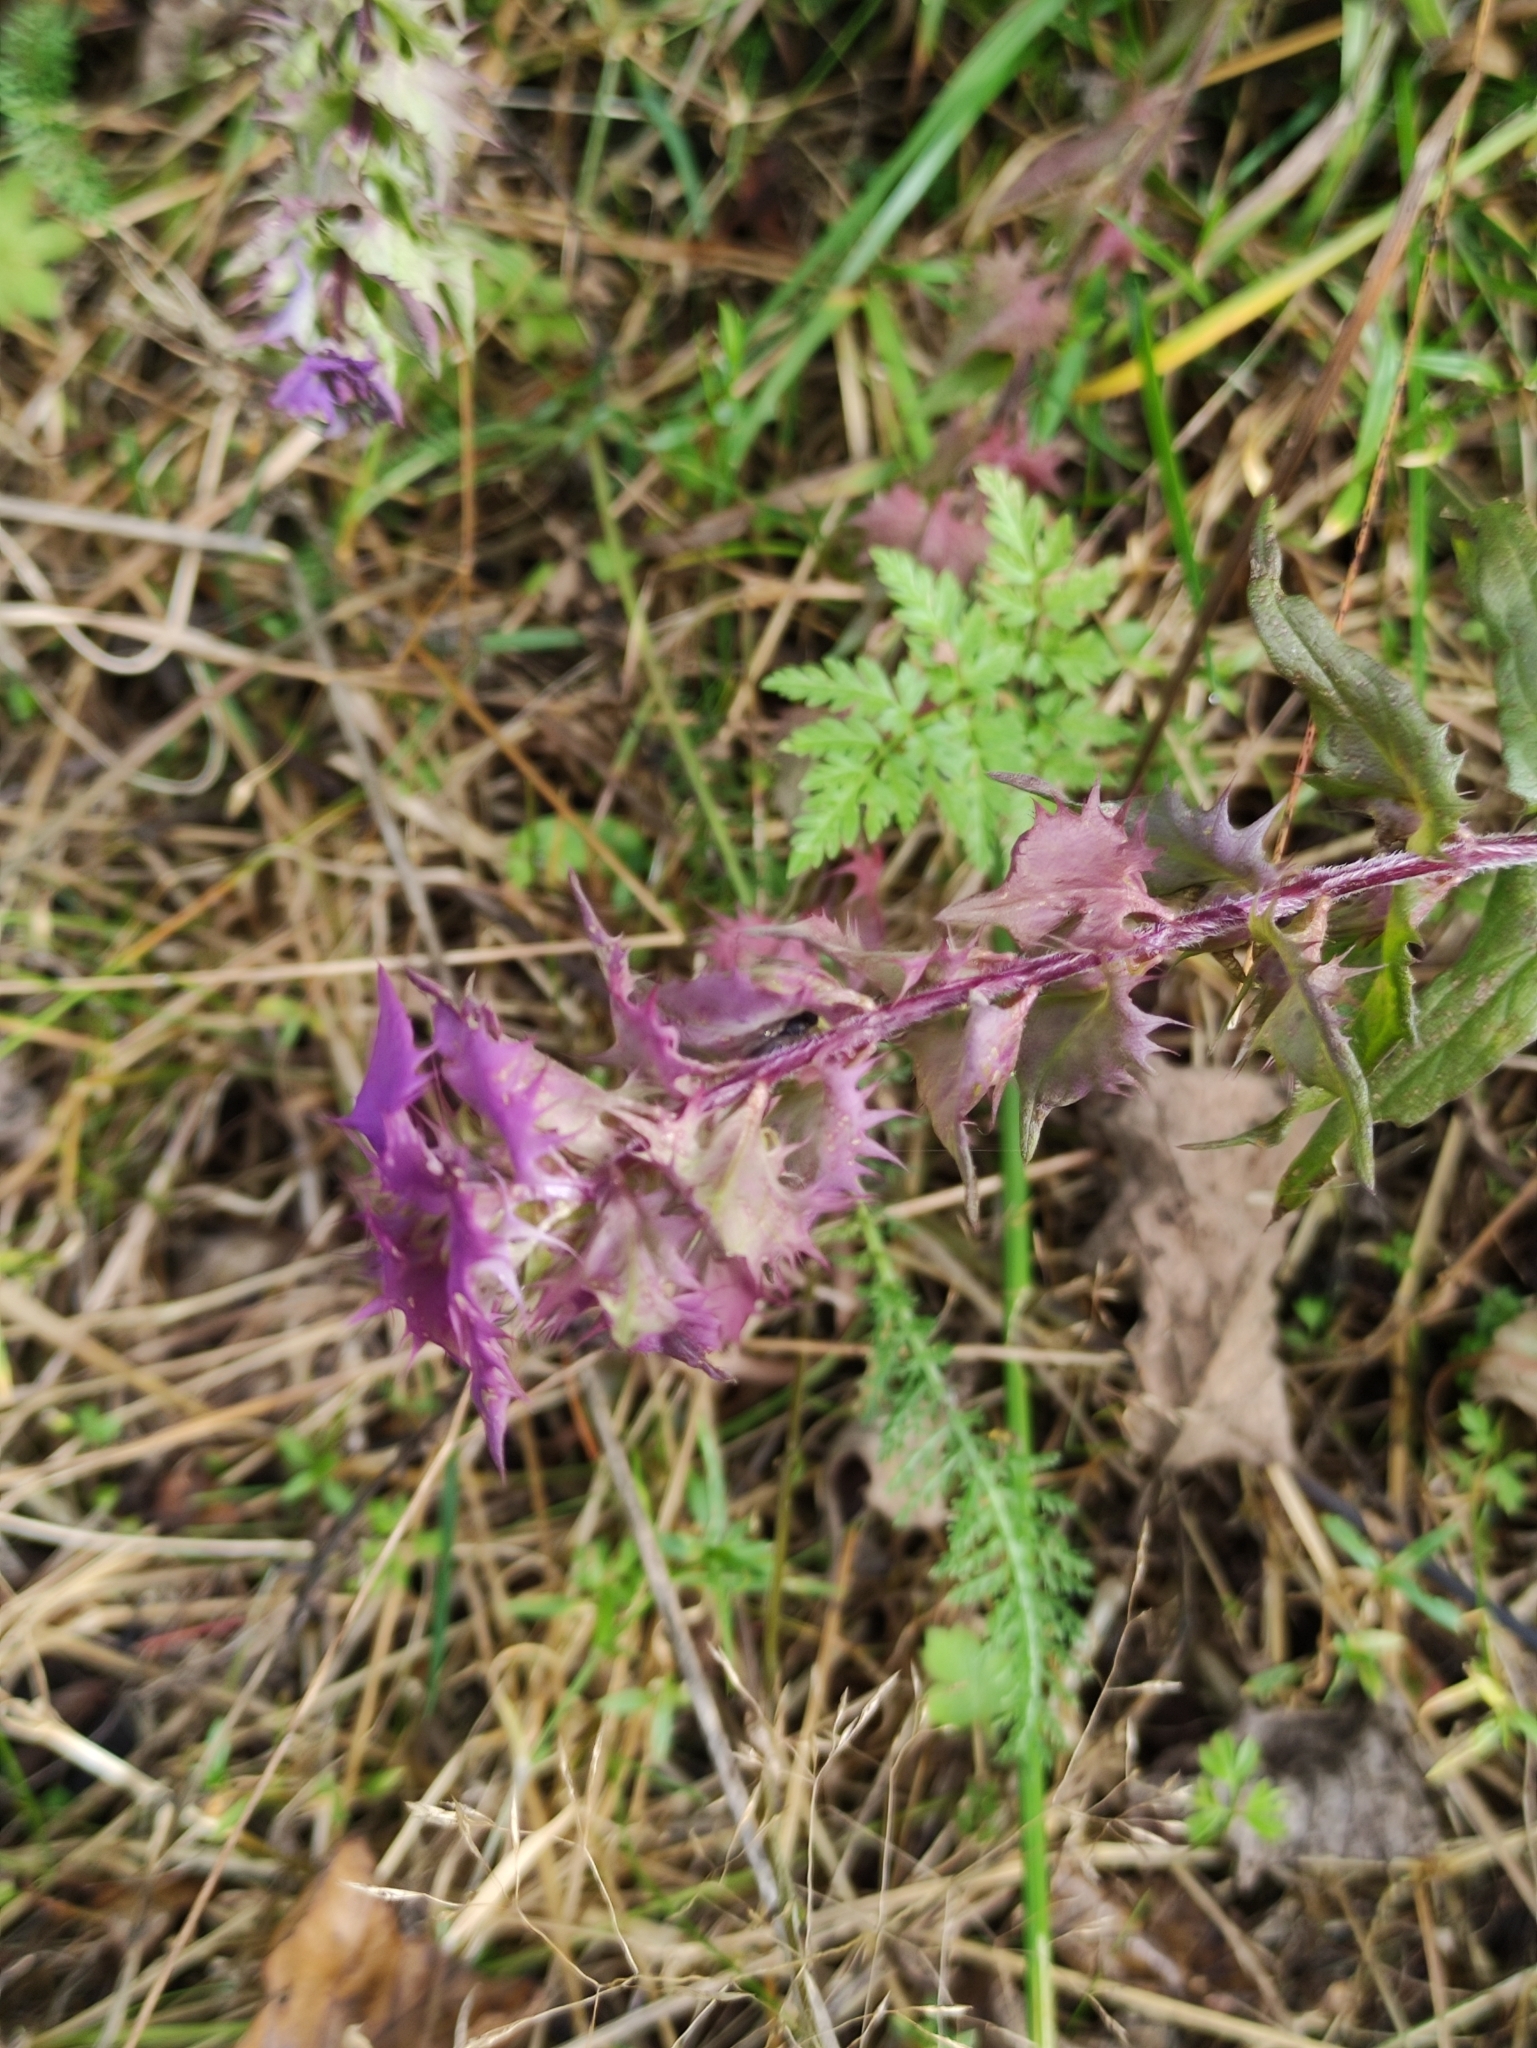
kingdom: Plantae
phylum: Tracheophyta
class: Magnoliopsida
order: Lamiales
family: Orobanchaceae
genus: Melampyrum
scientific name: Melampyrum nemorosum
